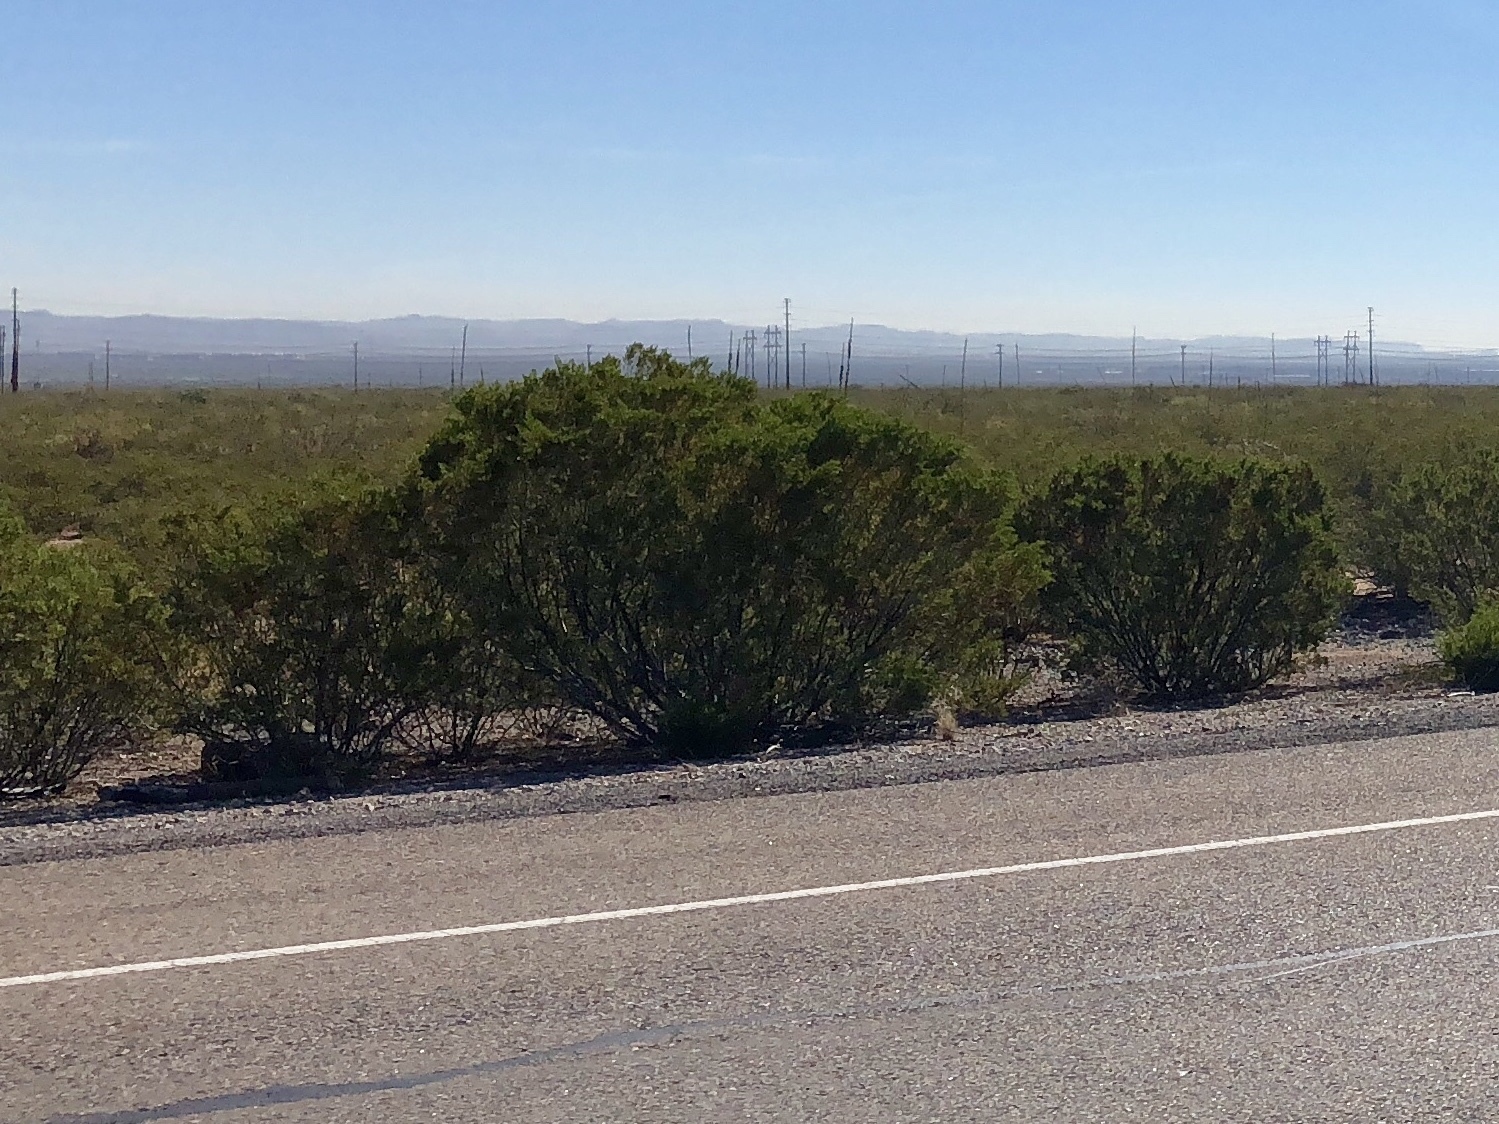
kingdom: Plantae
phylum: Tracheophyta
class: Magnoliopsida
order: Zygophyllales
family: Zygophyllaceae
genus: Larrea
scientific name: Larrea tridentata
